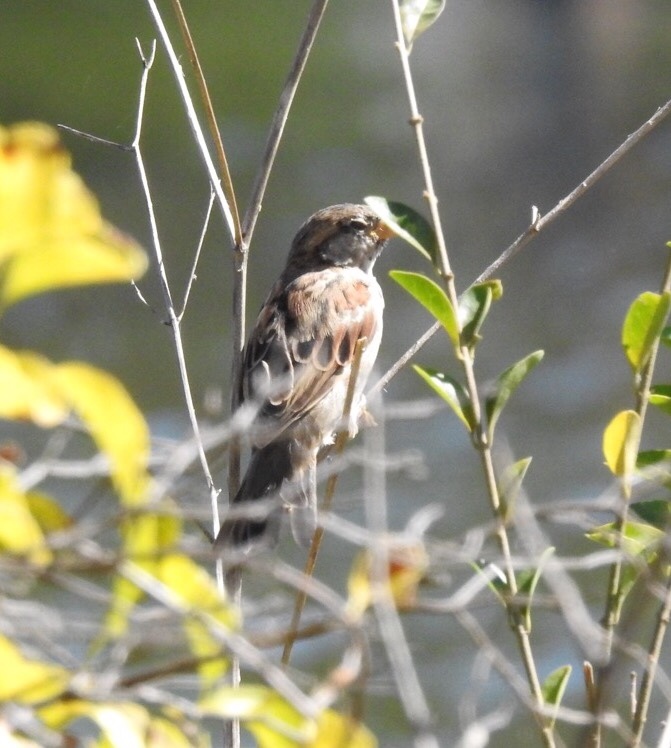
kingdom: Animalia
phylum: Chordata
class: Aves
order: Passeriformes
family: Passeridae
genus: Passer
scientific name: Passer domesticus
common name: House sparrow
